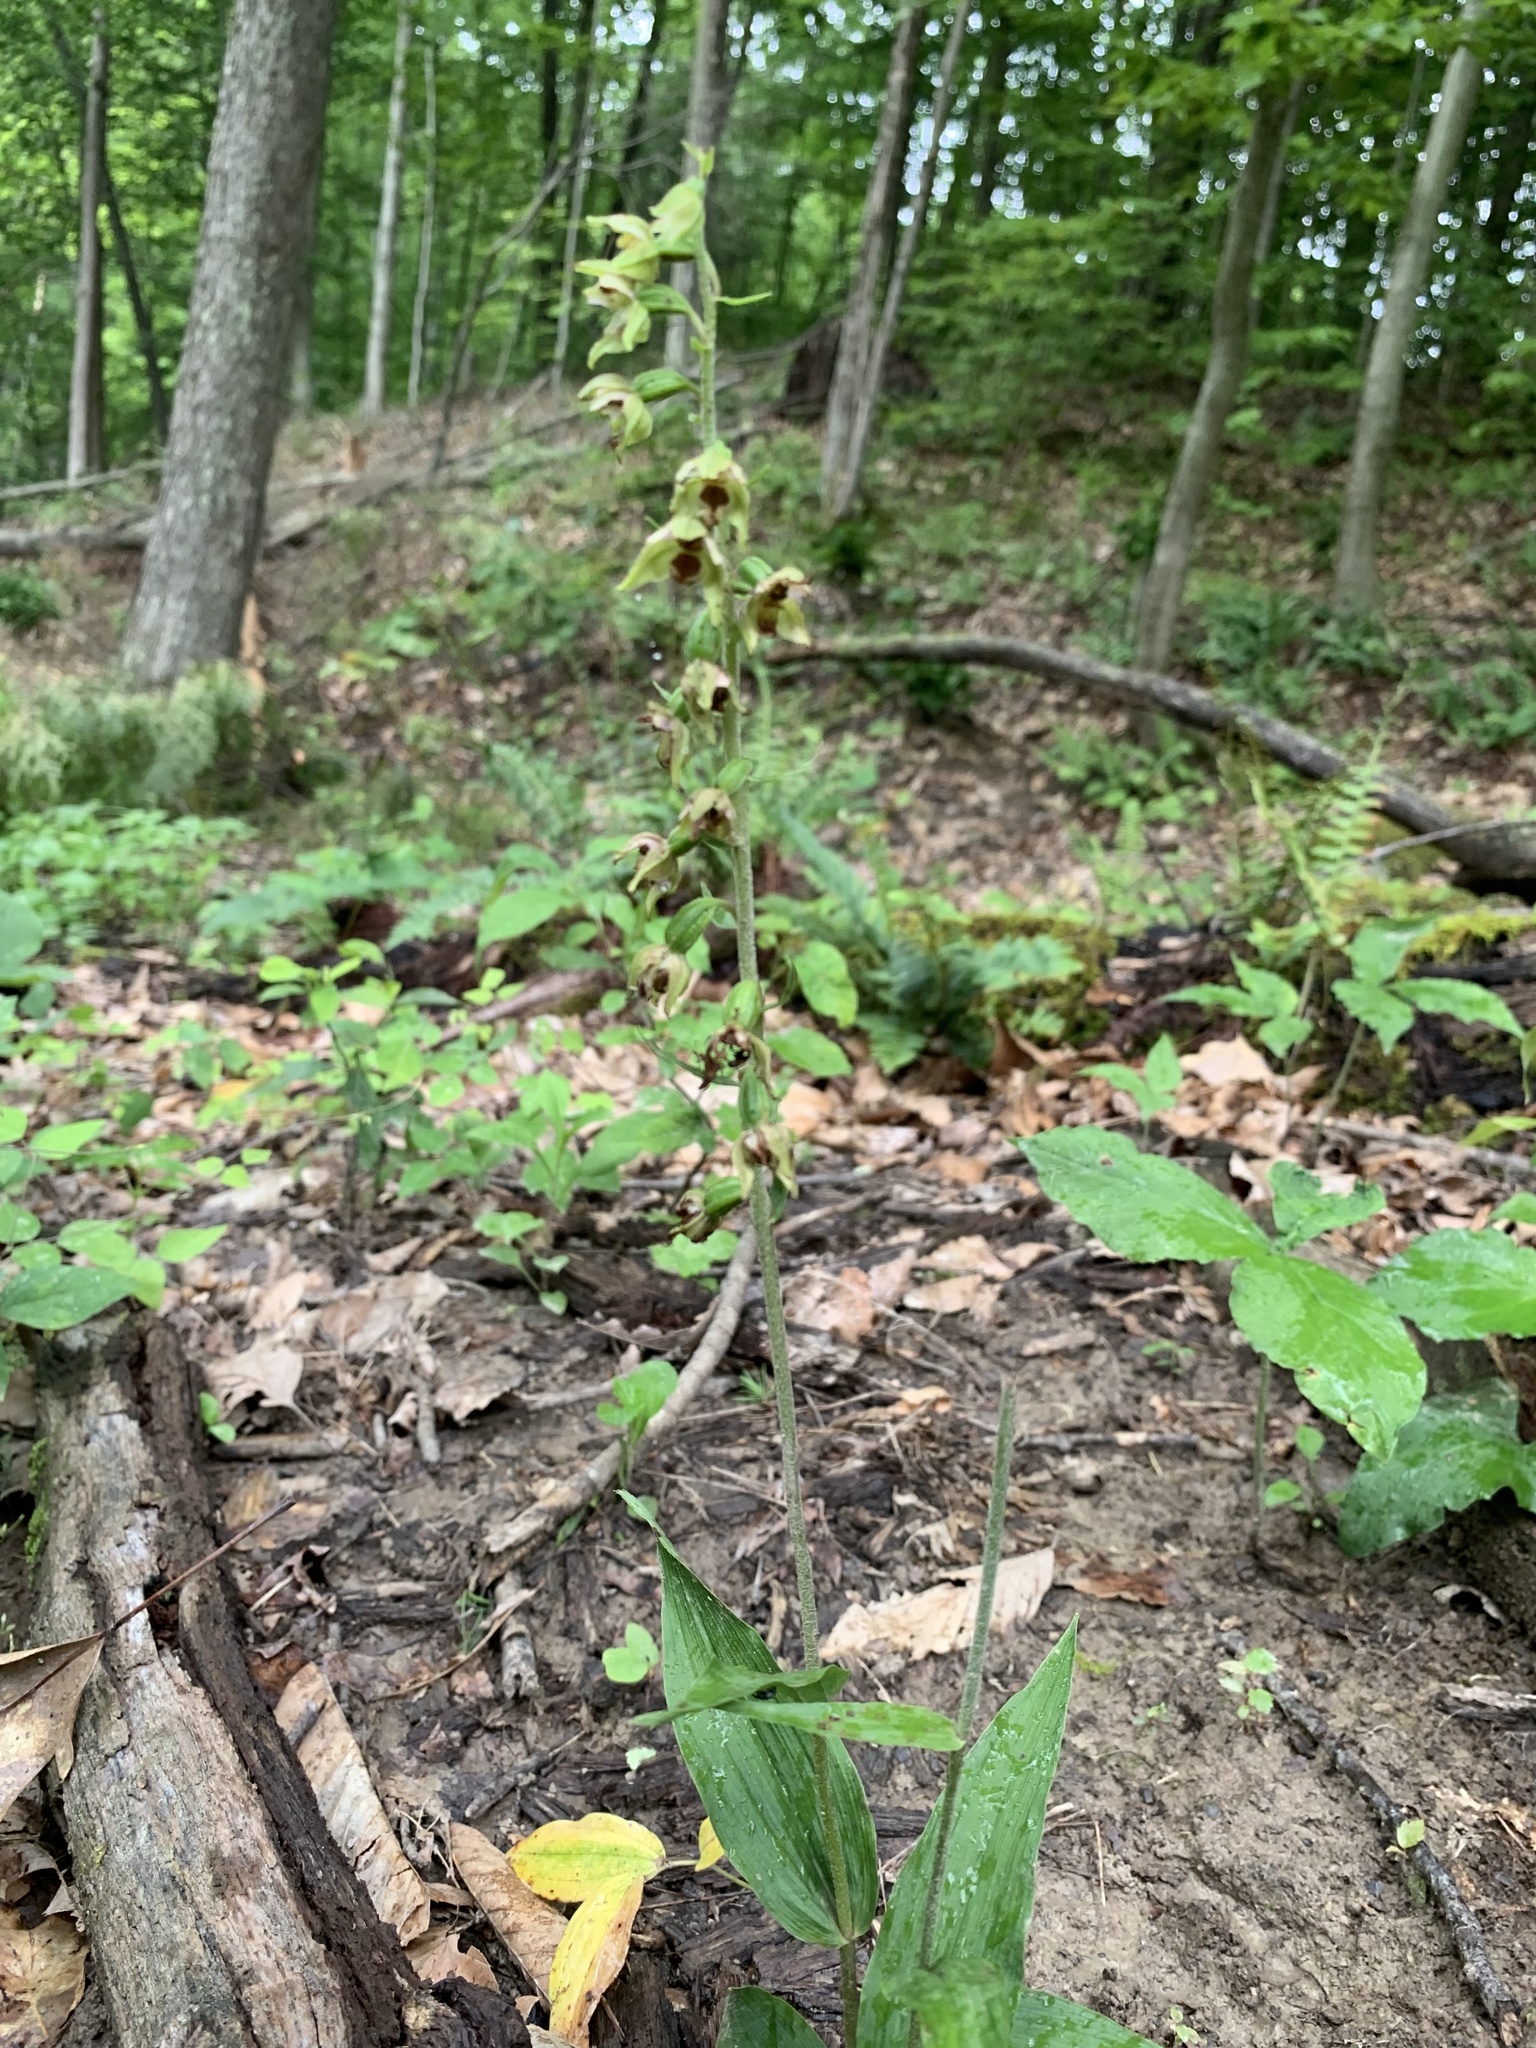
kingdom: Plantae
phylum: Tracheophyta
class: Liliopsida
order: Asparagales
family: Orchidaceae
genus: Epipactis
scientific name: Epipactis helleborine
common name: Broad-leaved helleborine
